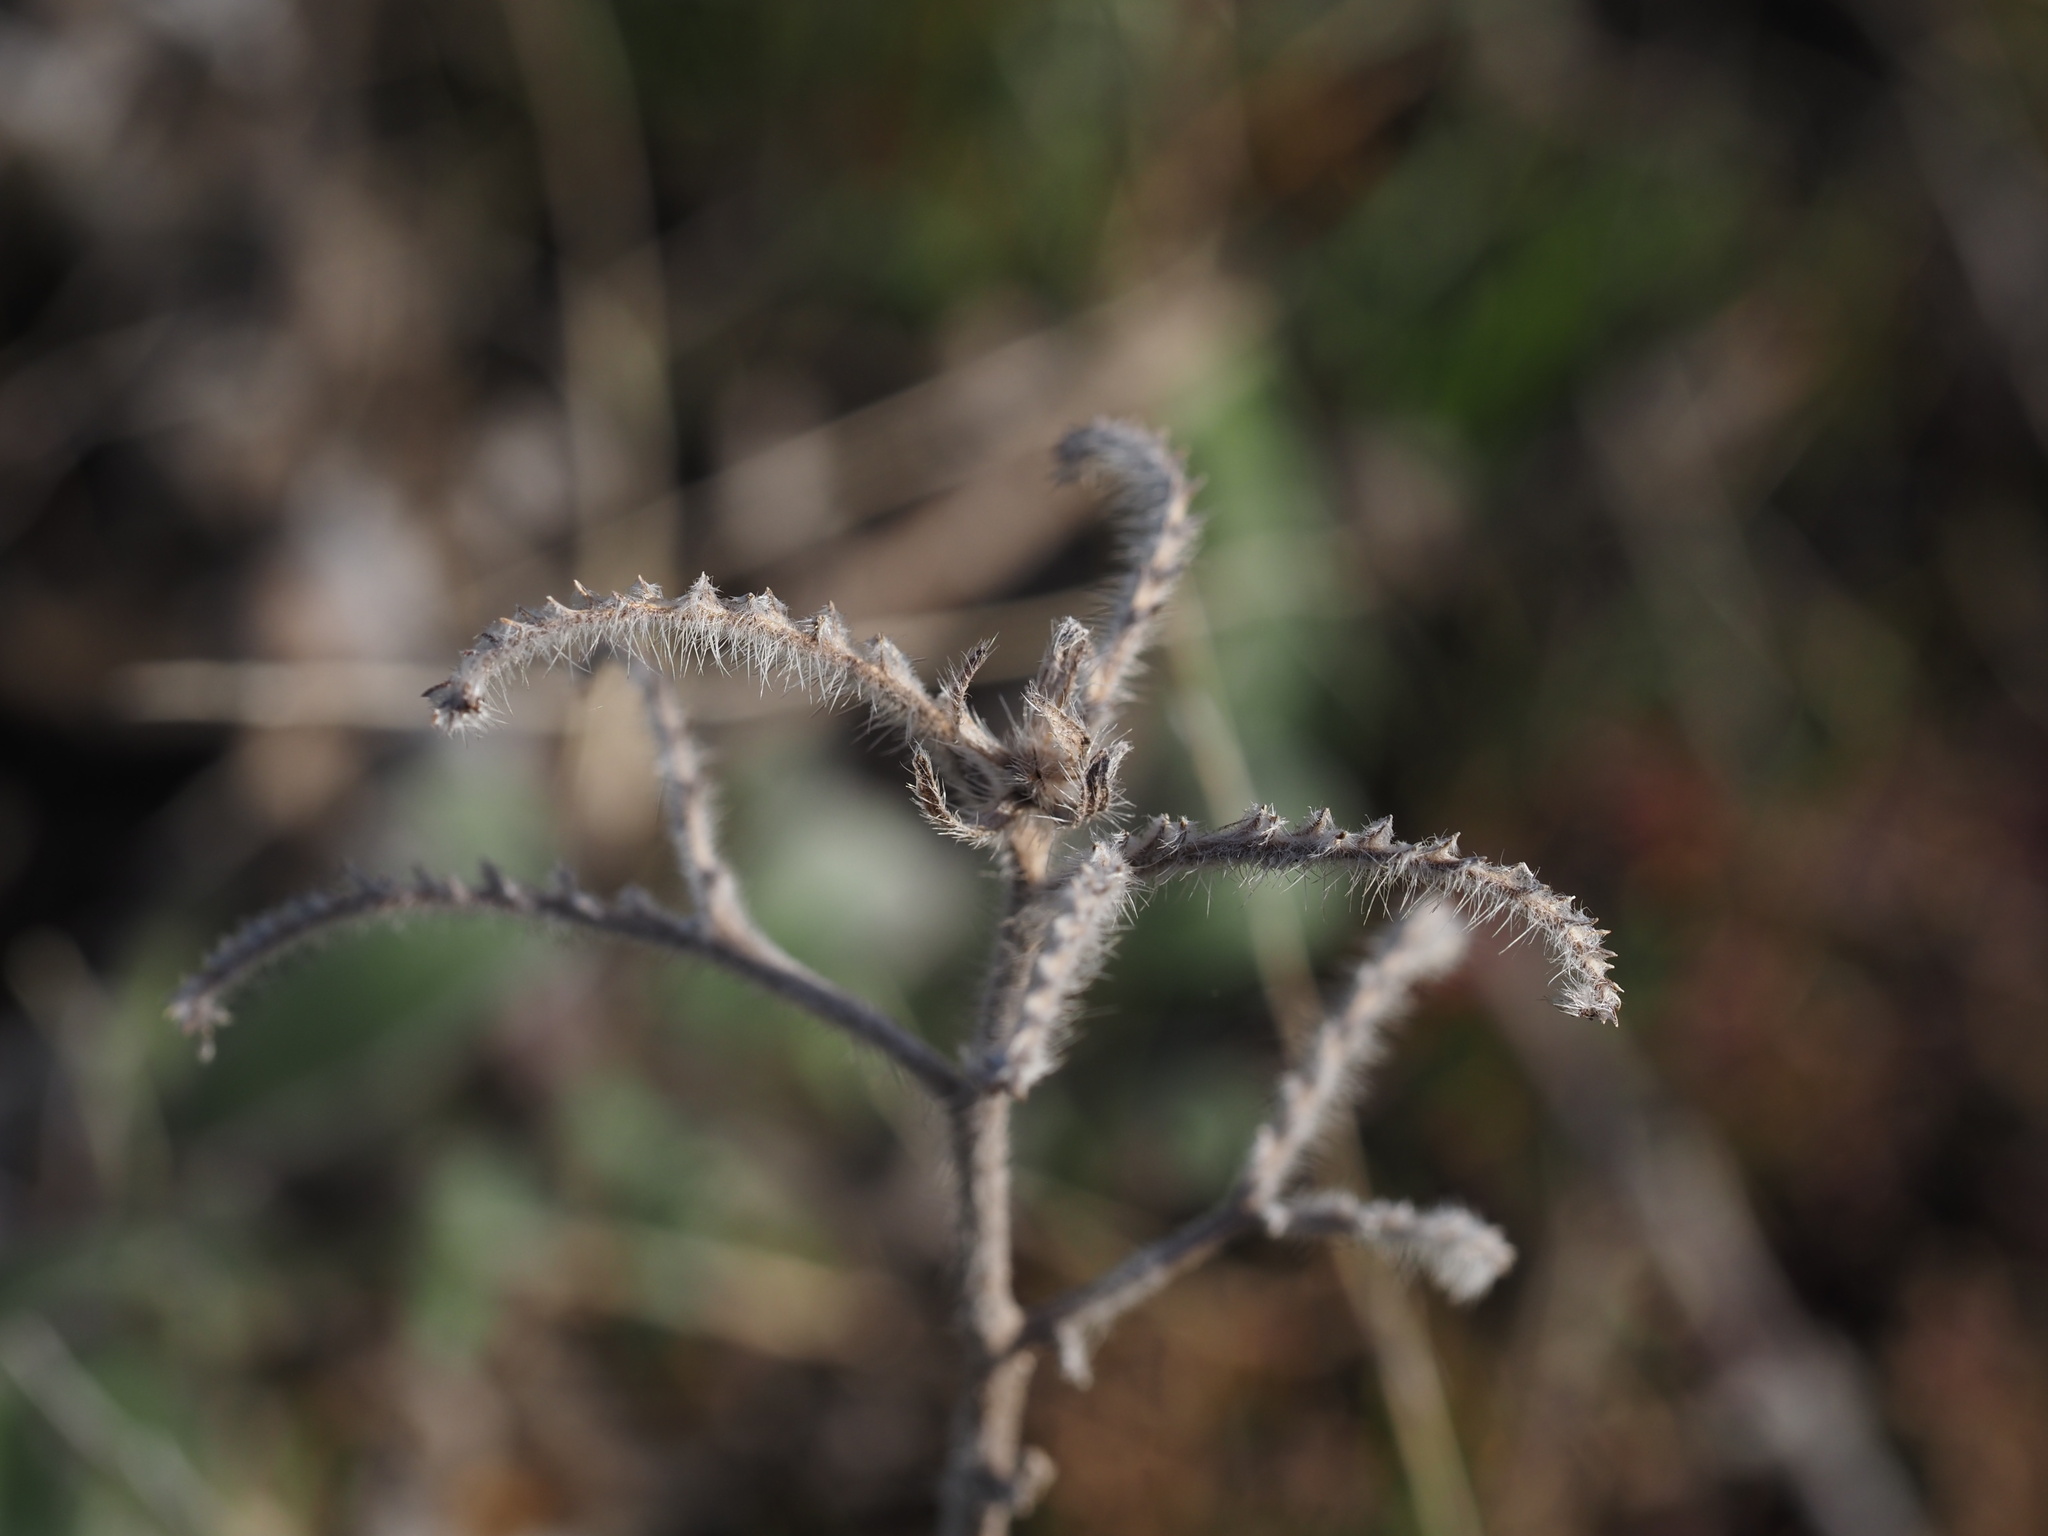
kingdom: Plantae
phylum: Tracheophyta
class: Magnoliopsida
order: Boraginales
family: Hydrophyllaceae
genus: Phacelia
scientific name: Phacelia hastata
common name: Silver-leaved phacelia
